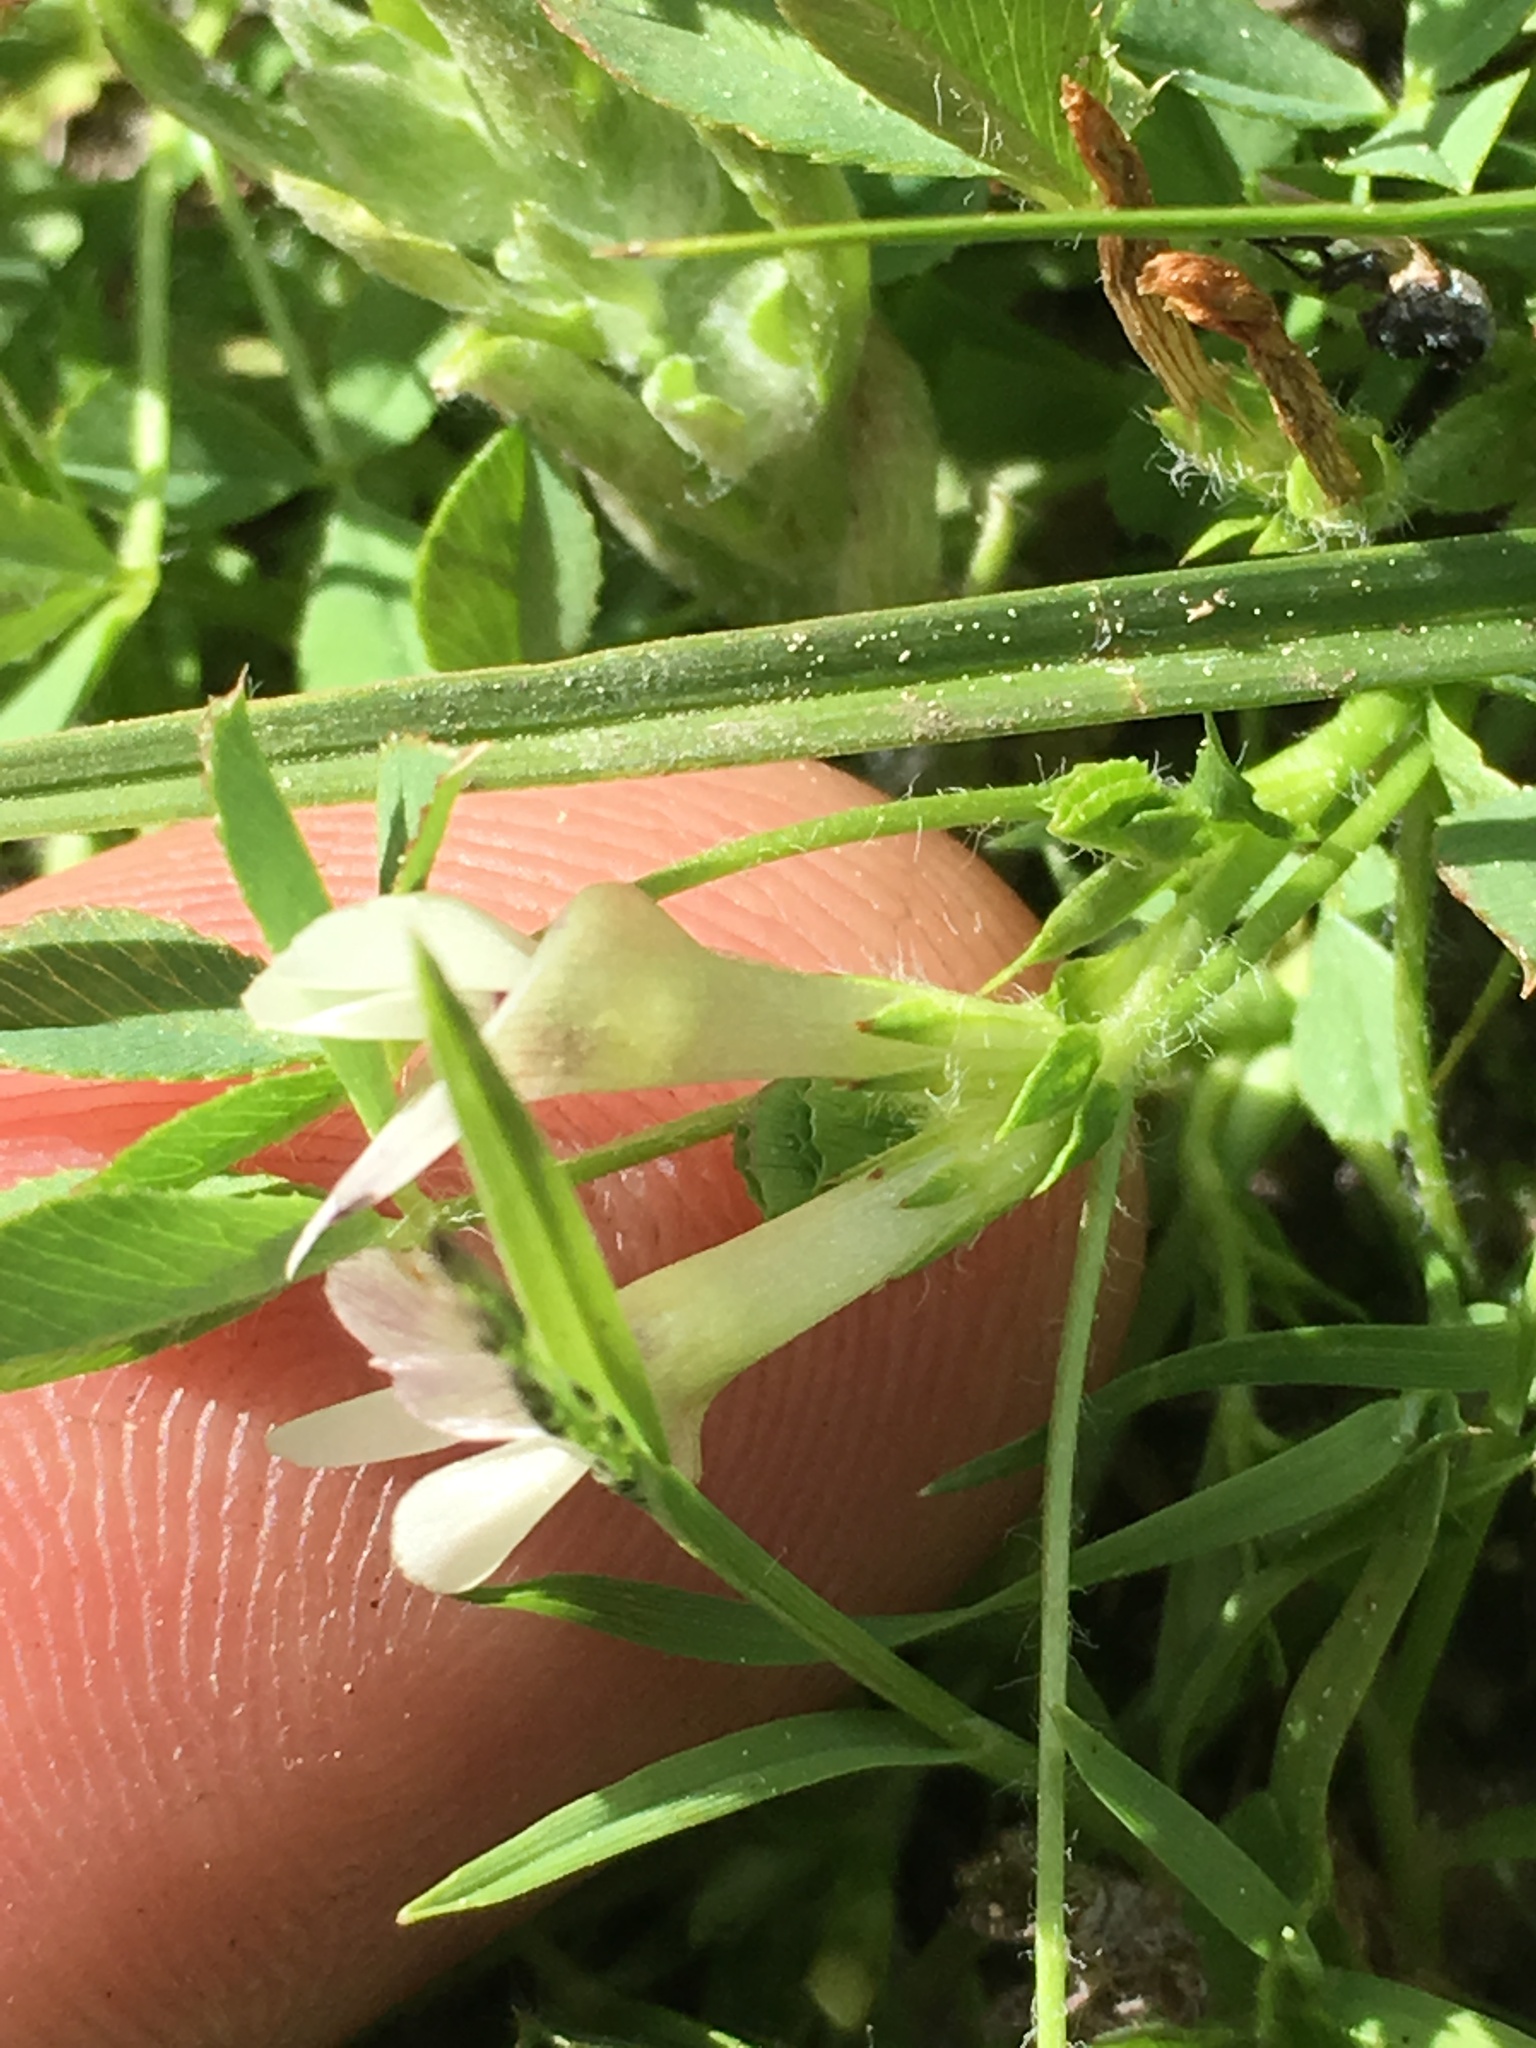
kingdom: Plantae
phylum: Tracheophyta
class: Magnoliopsida
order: Fabales
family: Fabaceae
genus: Trifolium
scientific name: Trifolium monanthum
